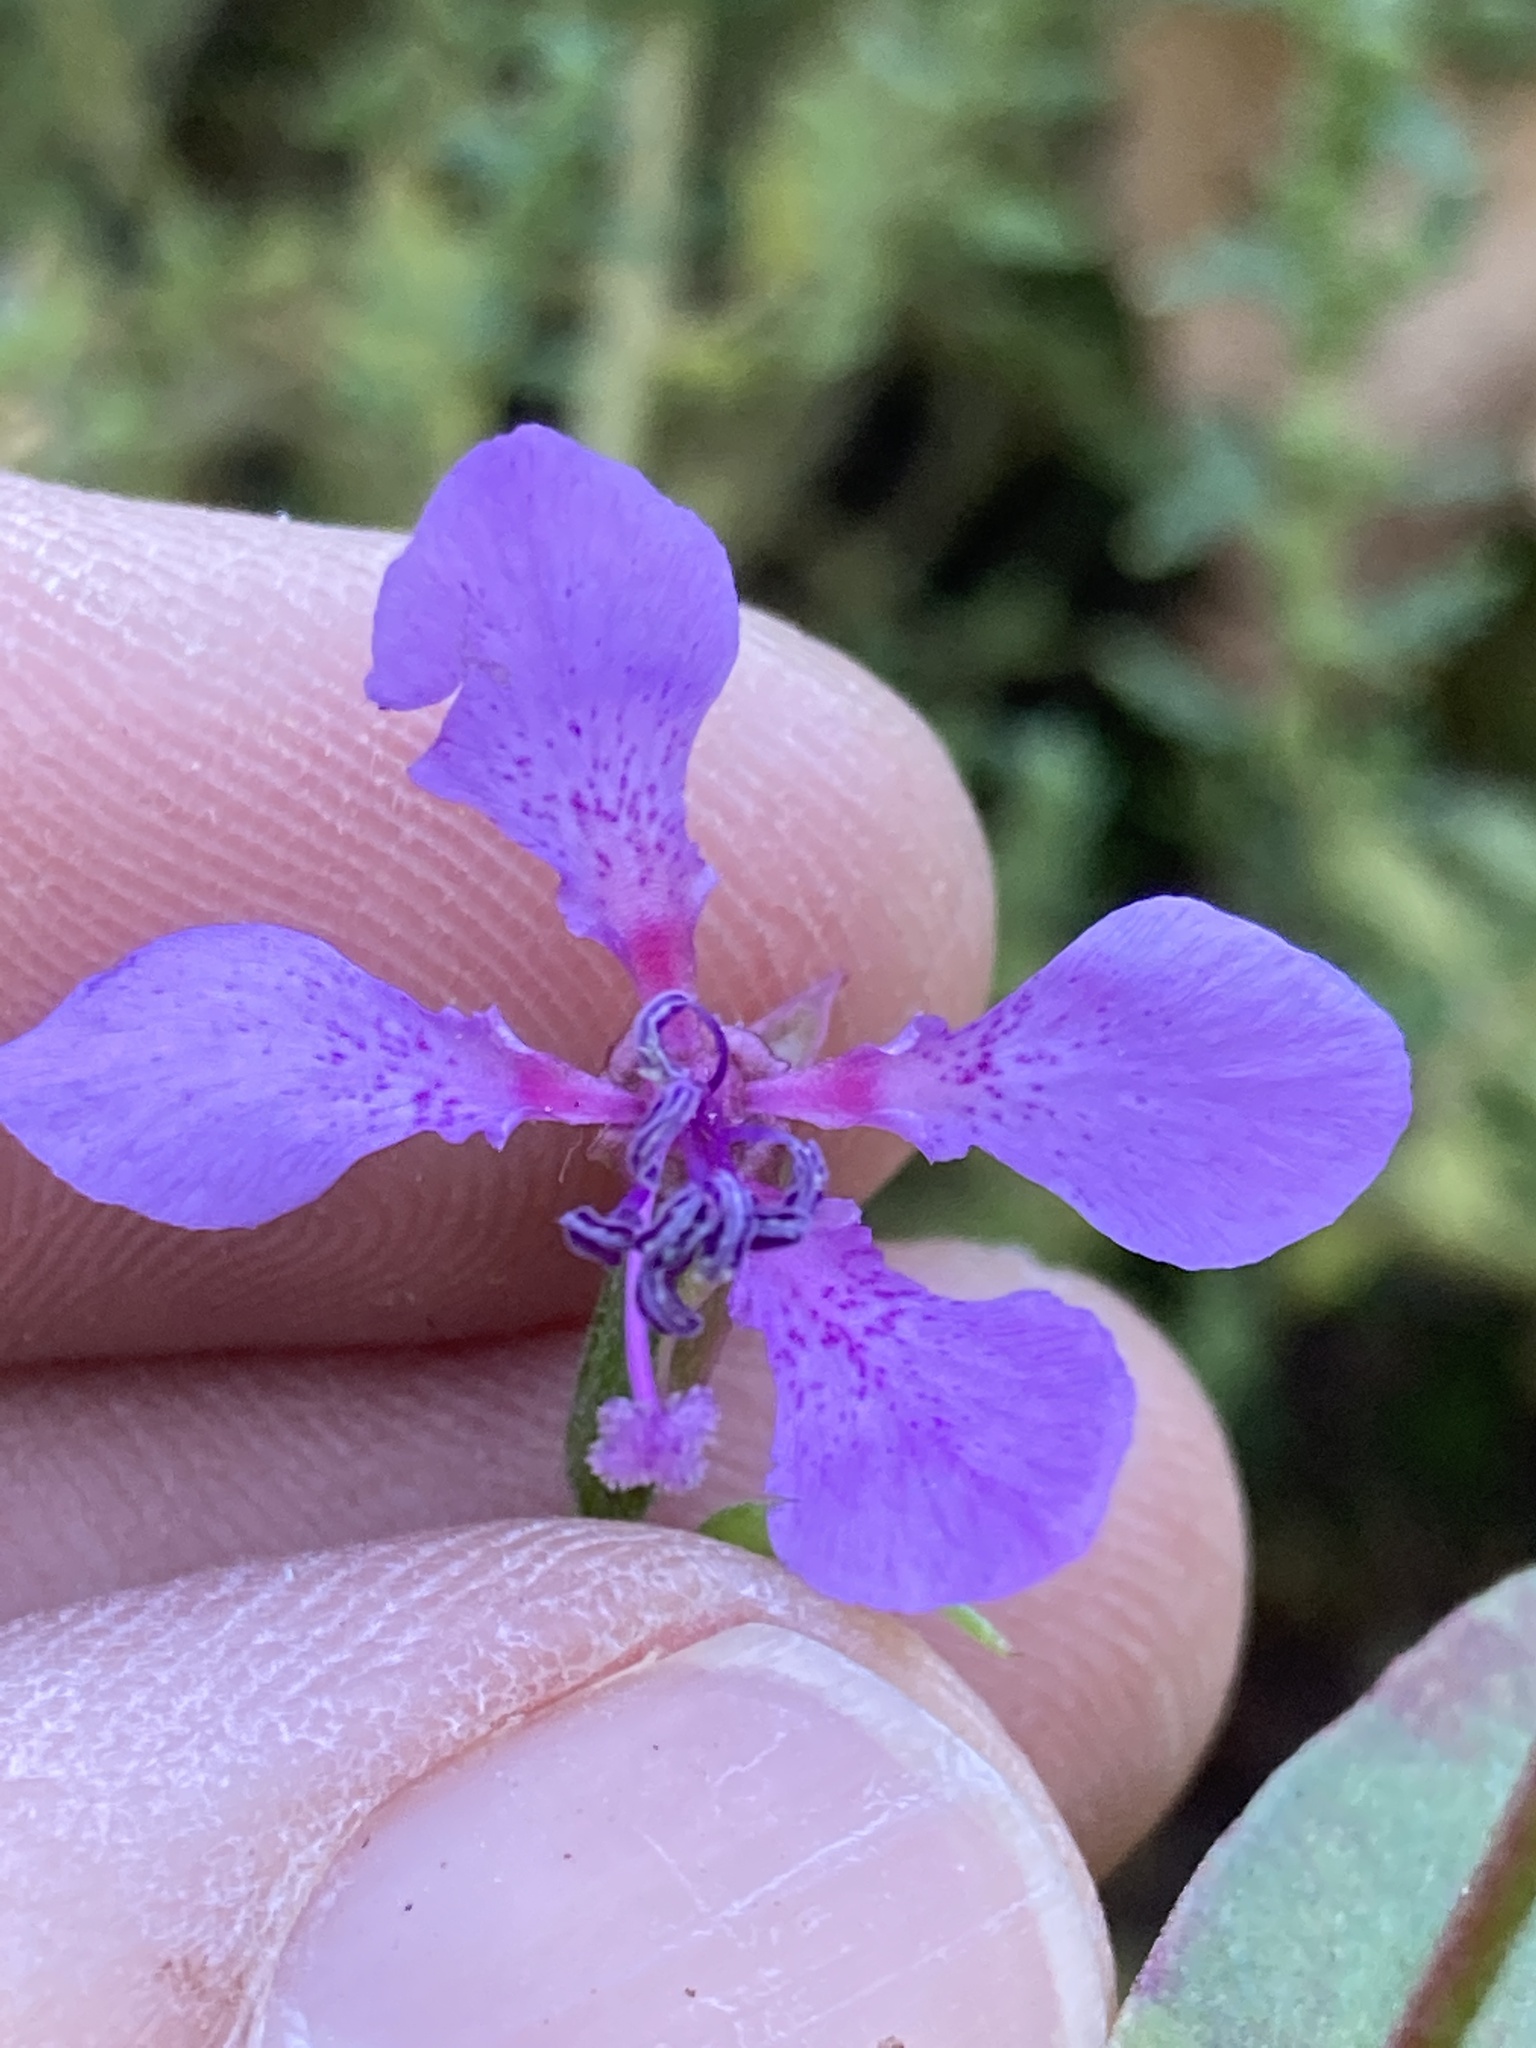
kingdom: Plantae
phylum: Tracheophyta
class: Magnoliopsida
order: Myrtales
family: Onagraceae
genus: Clarkia
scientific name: Clarkia rhomboidea
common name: Broadleaf clarkia
